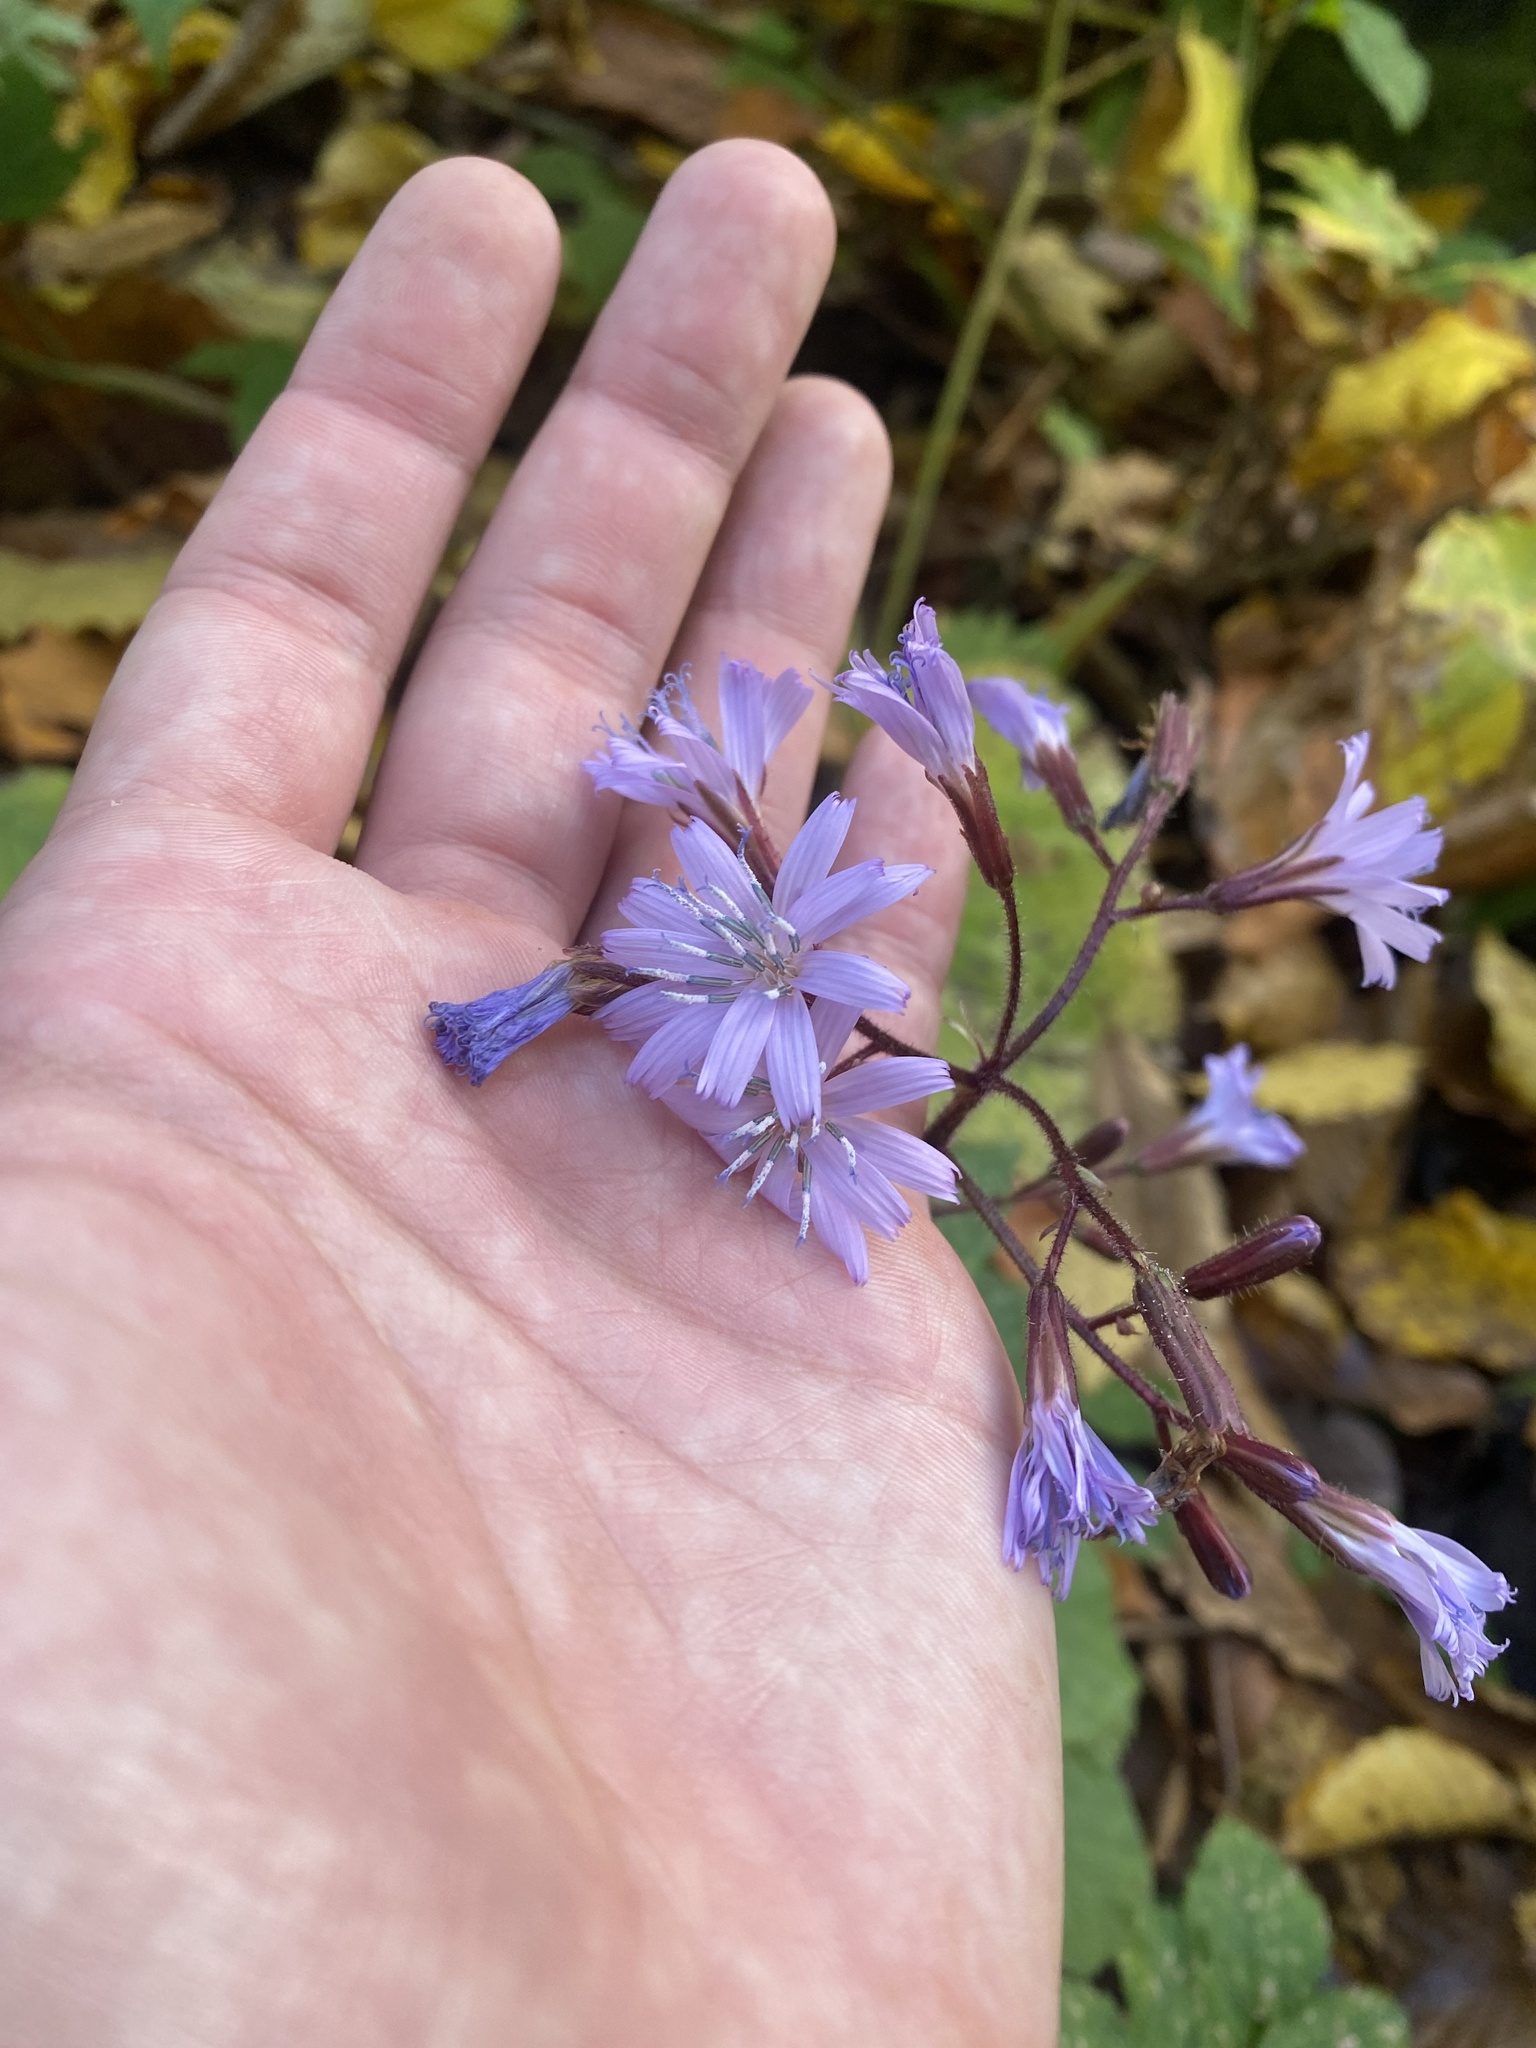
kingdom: Plantae
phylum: Tracheophyta
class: Magnoliopsida
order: Asterales
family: Asteraceae
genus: Cicerbita
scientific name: Cicerbita petiolata
